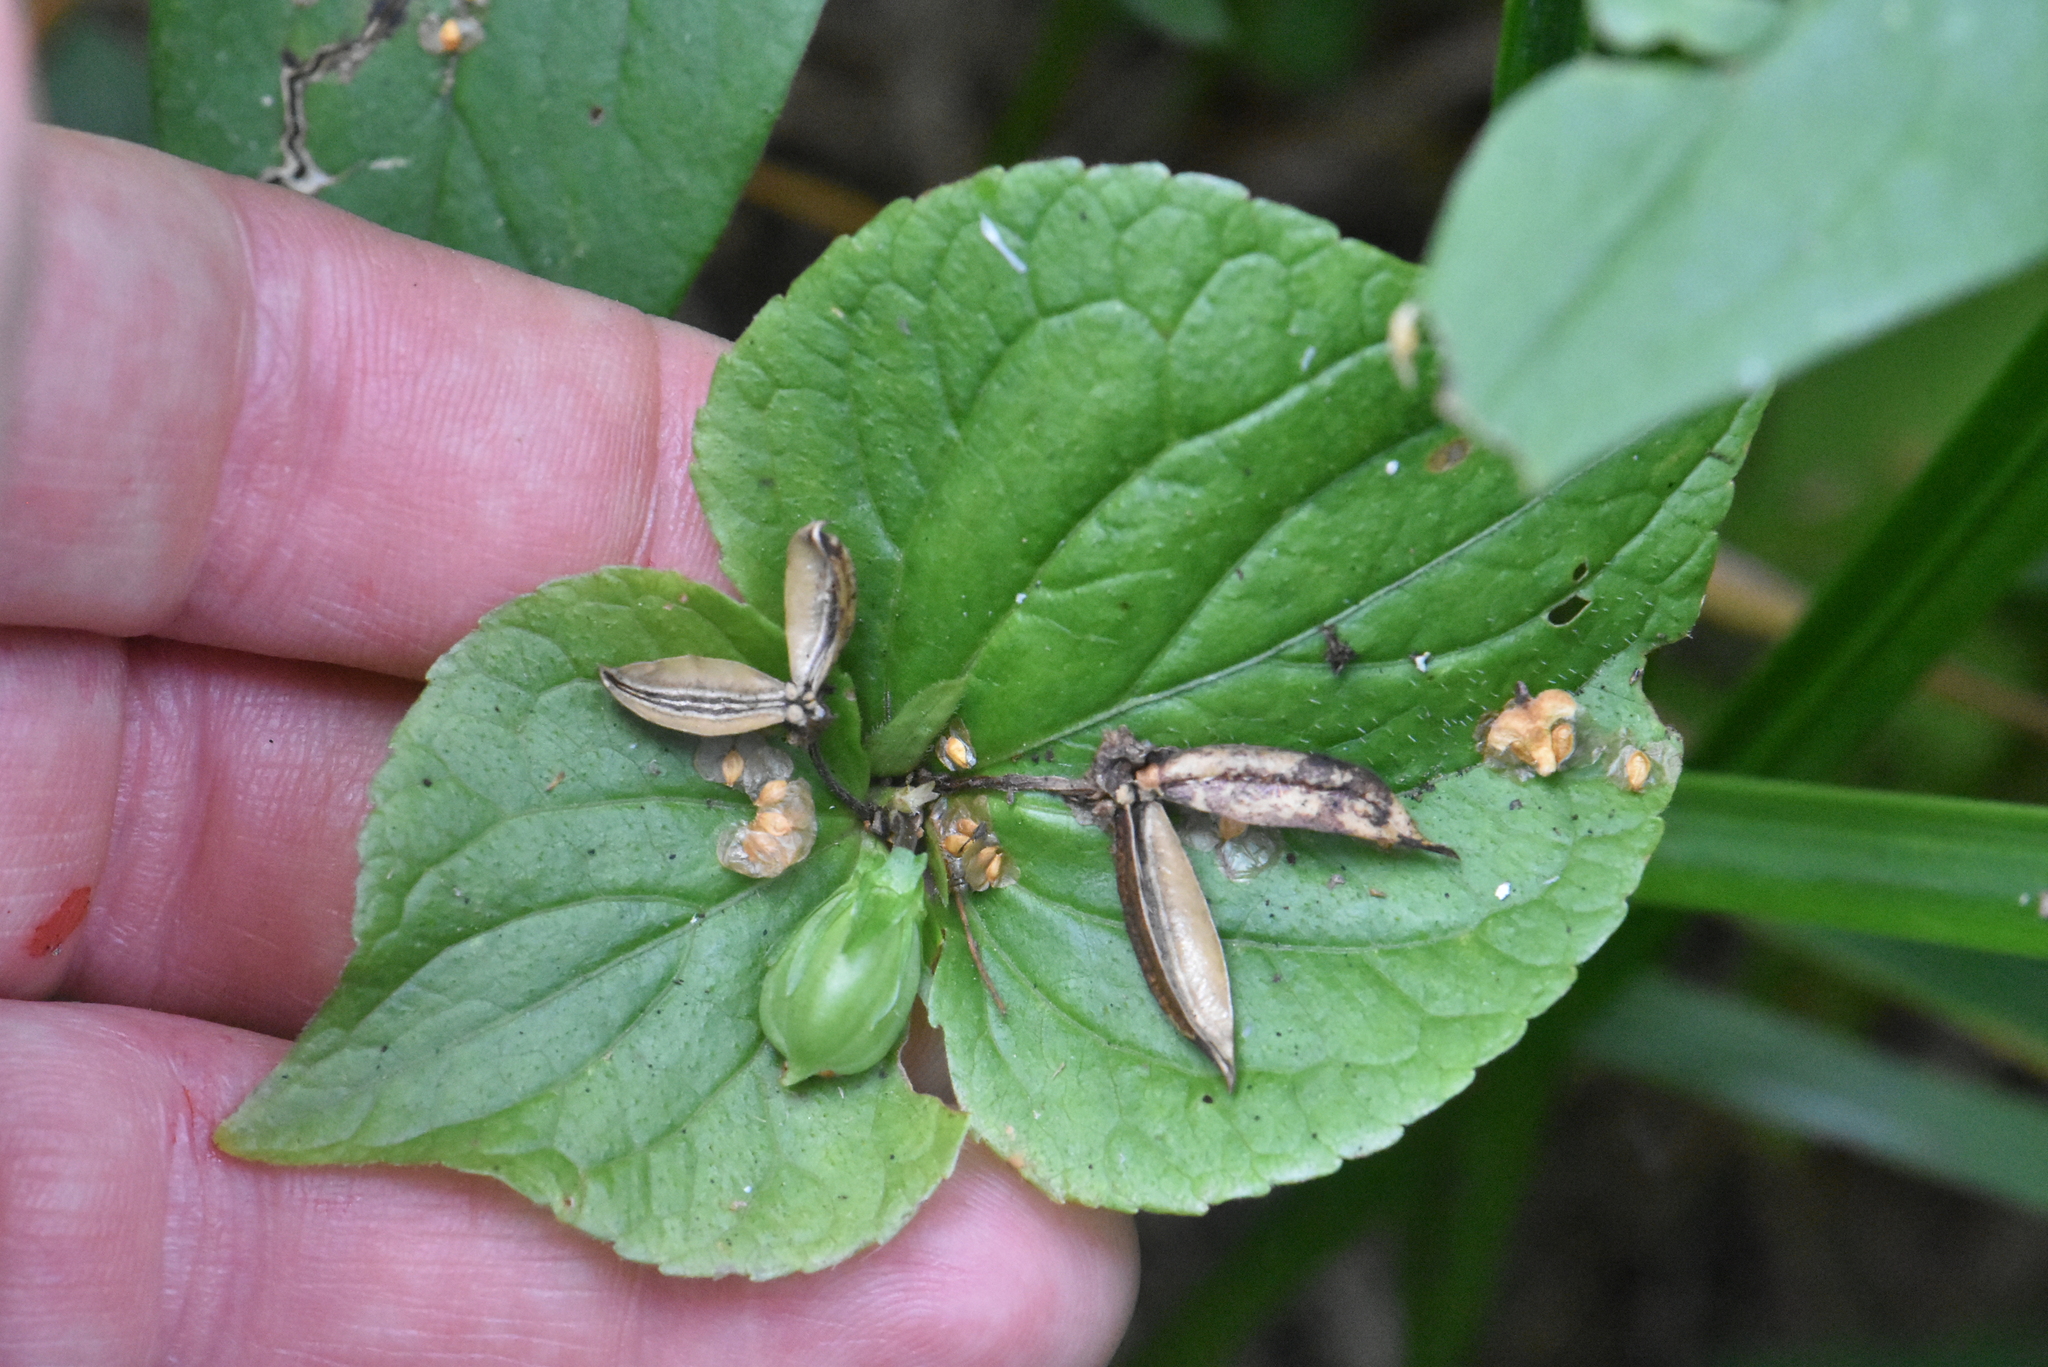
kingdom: Plantae
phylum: Tracheophyta
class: Magnoliopsida
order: Malpighiales
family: Violaceae
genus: Viola
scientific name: Viola mirabilis
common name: Wonder violet
